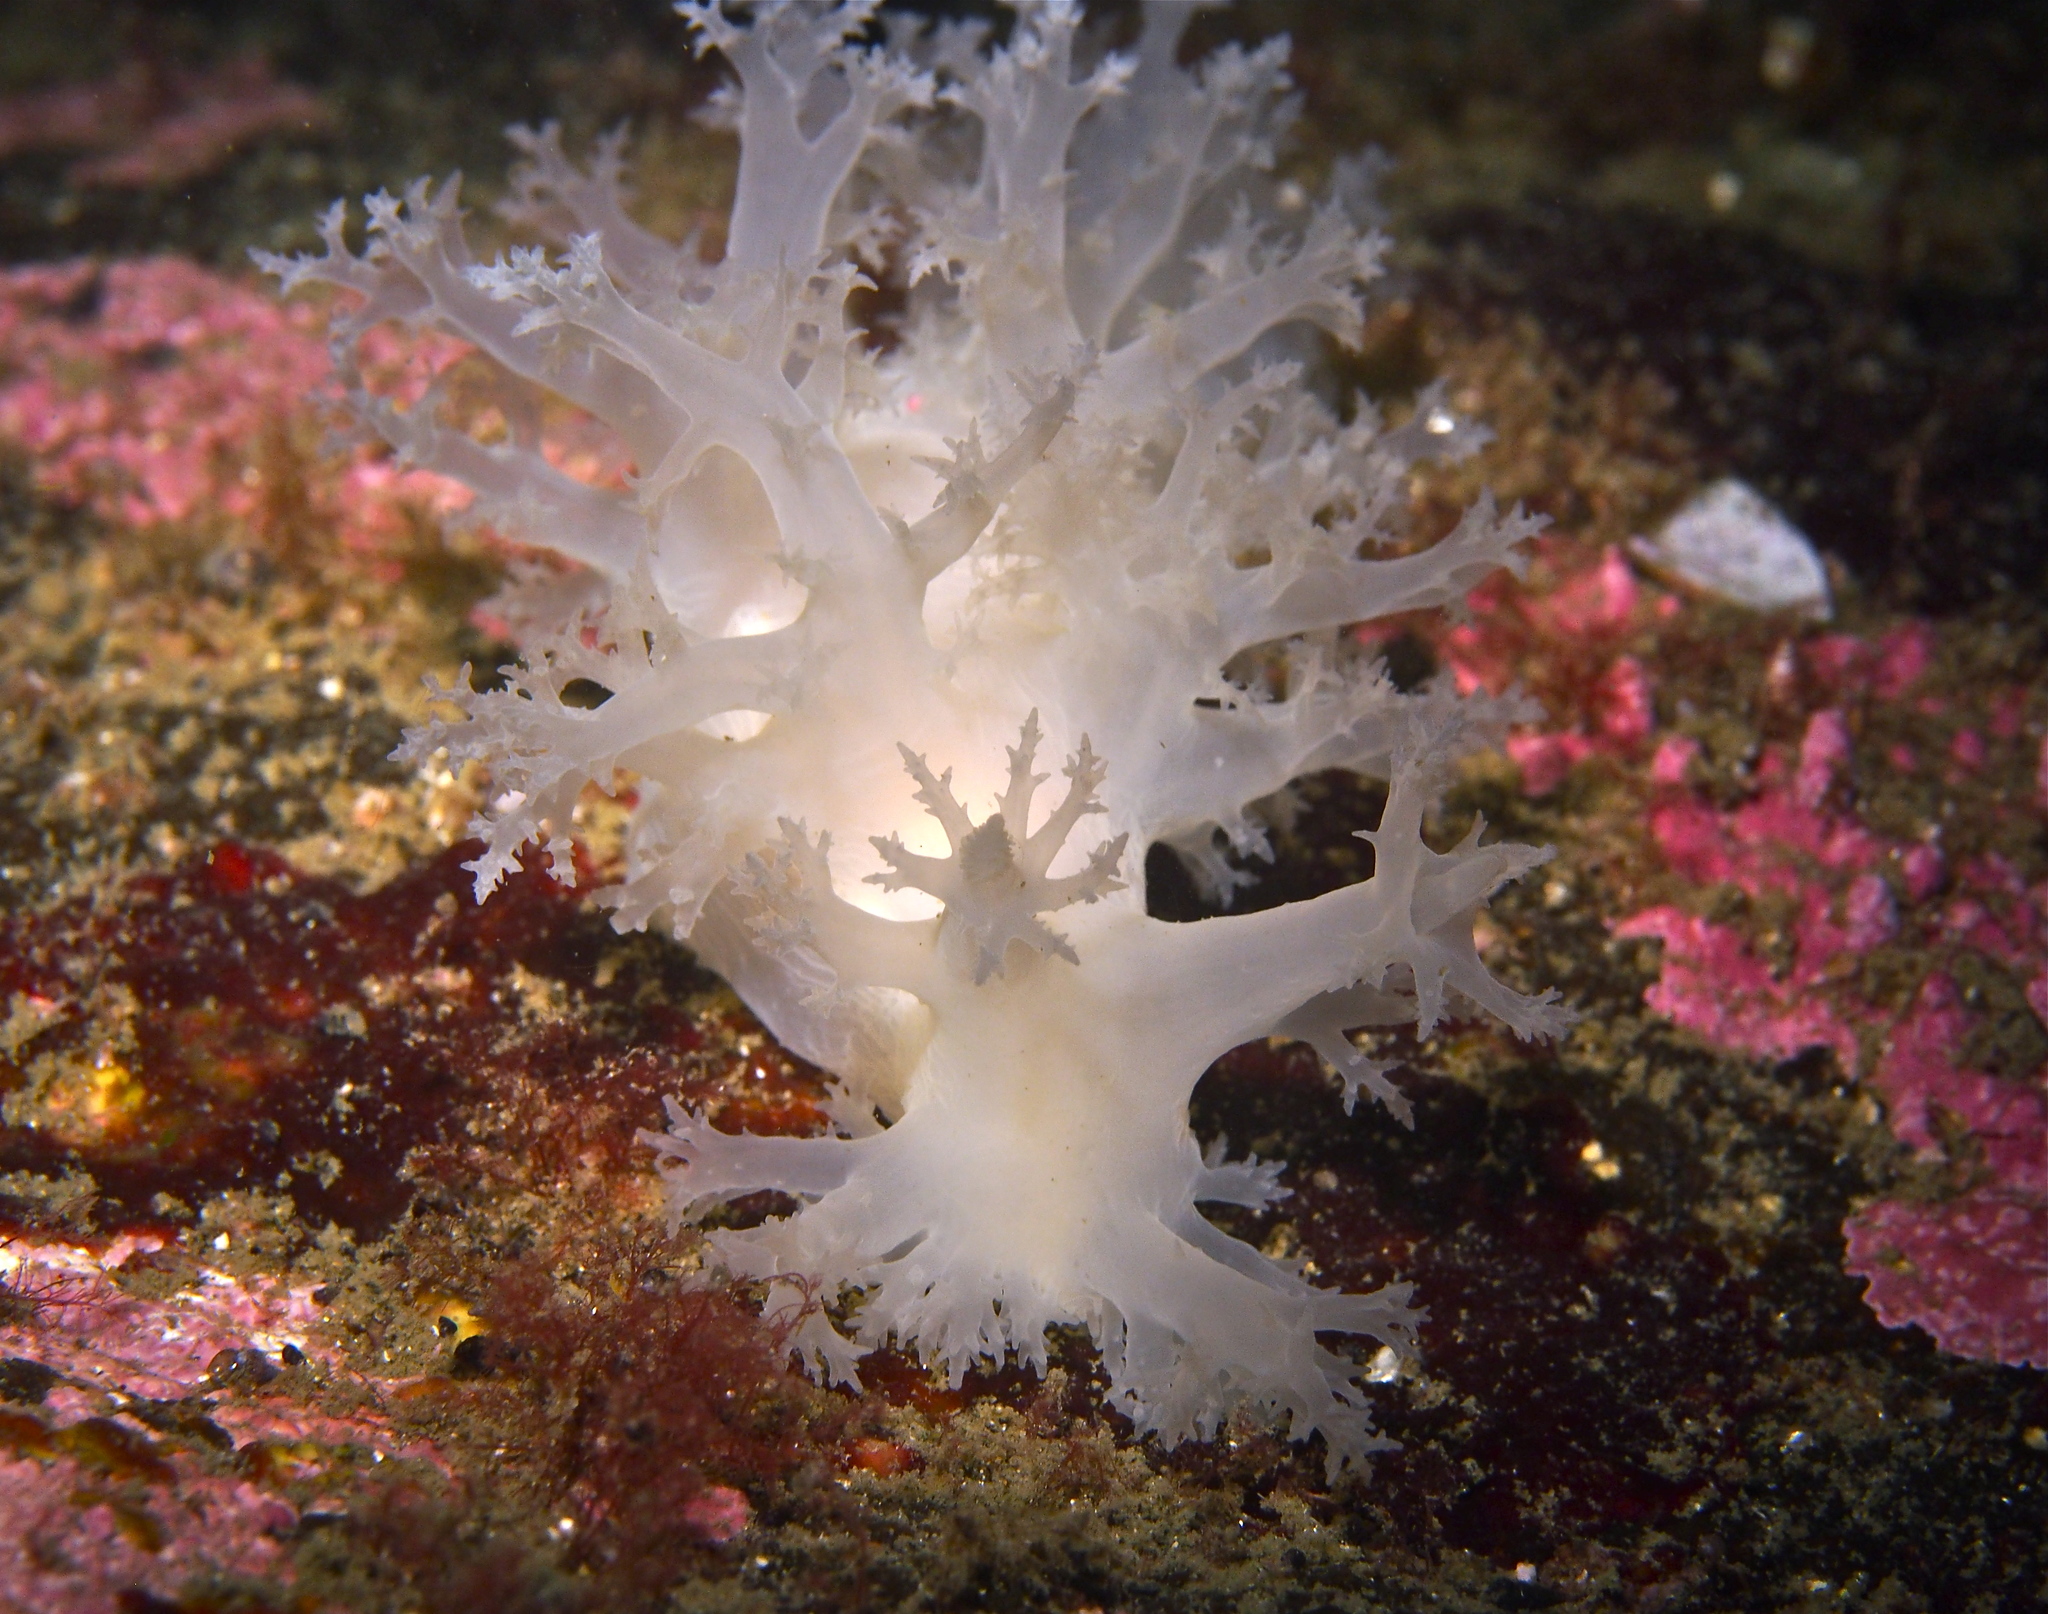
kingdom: Animalia
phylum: Mollusca
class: Gastropoda
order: Nudibranchia
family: Dendronotidae
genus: Dendronotus
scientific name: Dendronotus lacteus
